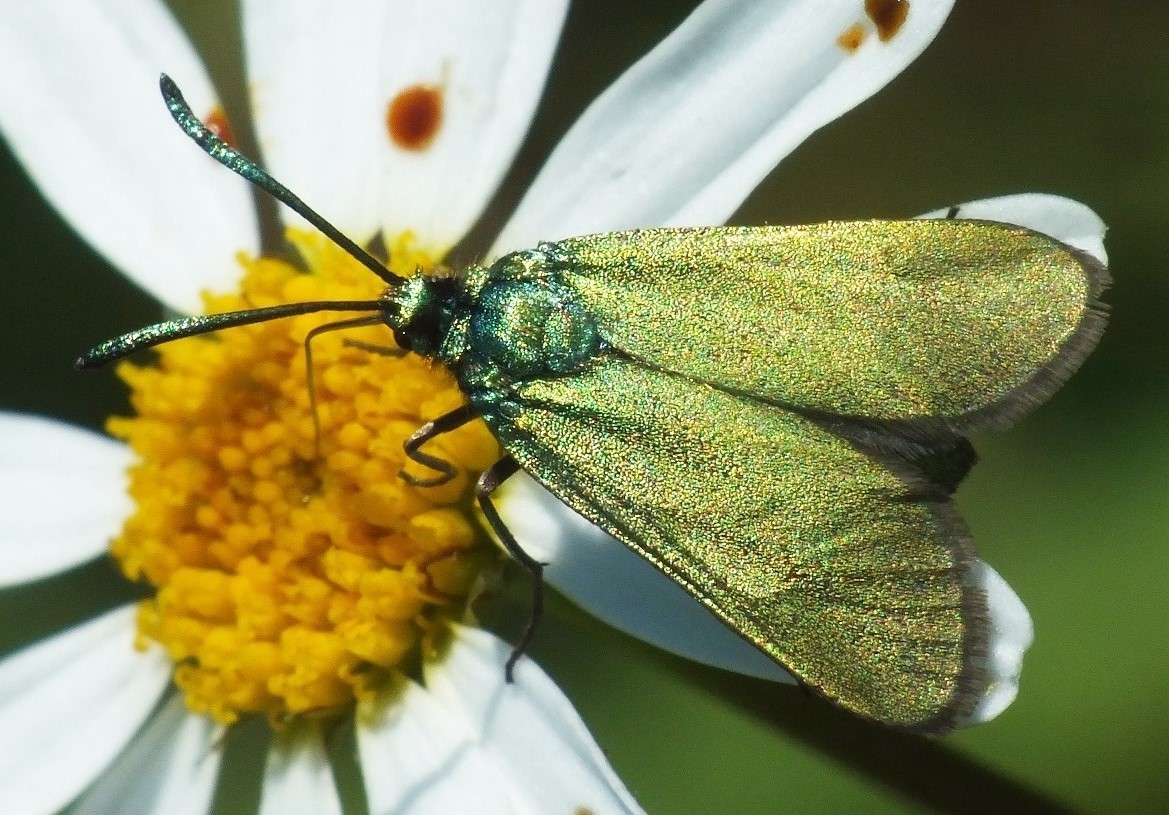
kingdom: Animalia
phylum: Arthropoda
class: Insecta
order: Lepidoptera
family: Zygaenidae
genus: Adscita
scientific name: Adscita geryon
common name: Cistus forester
